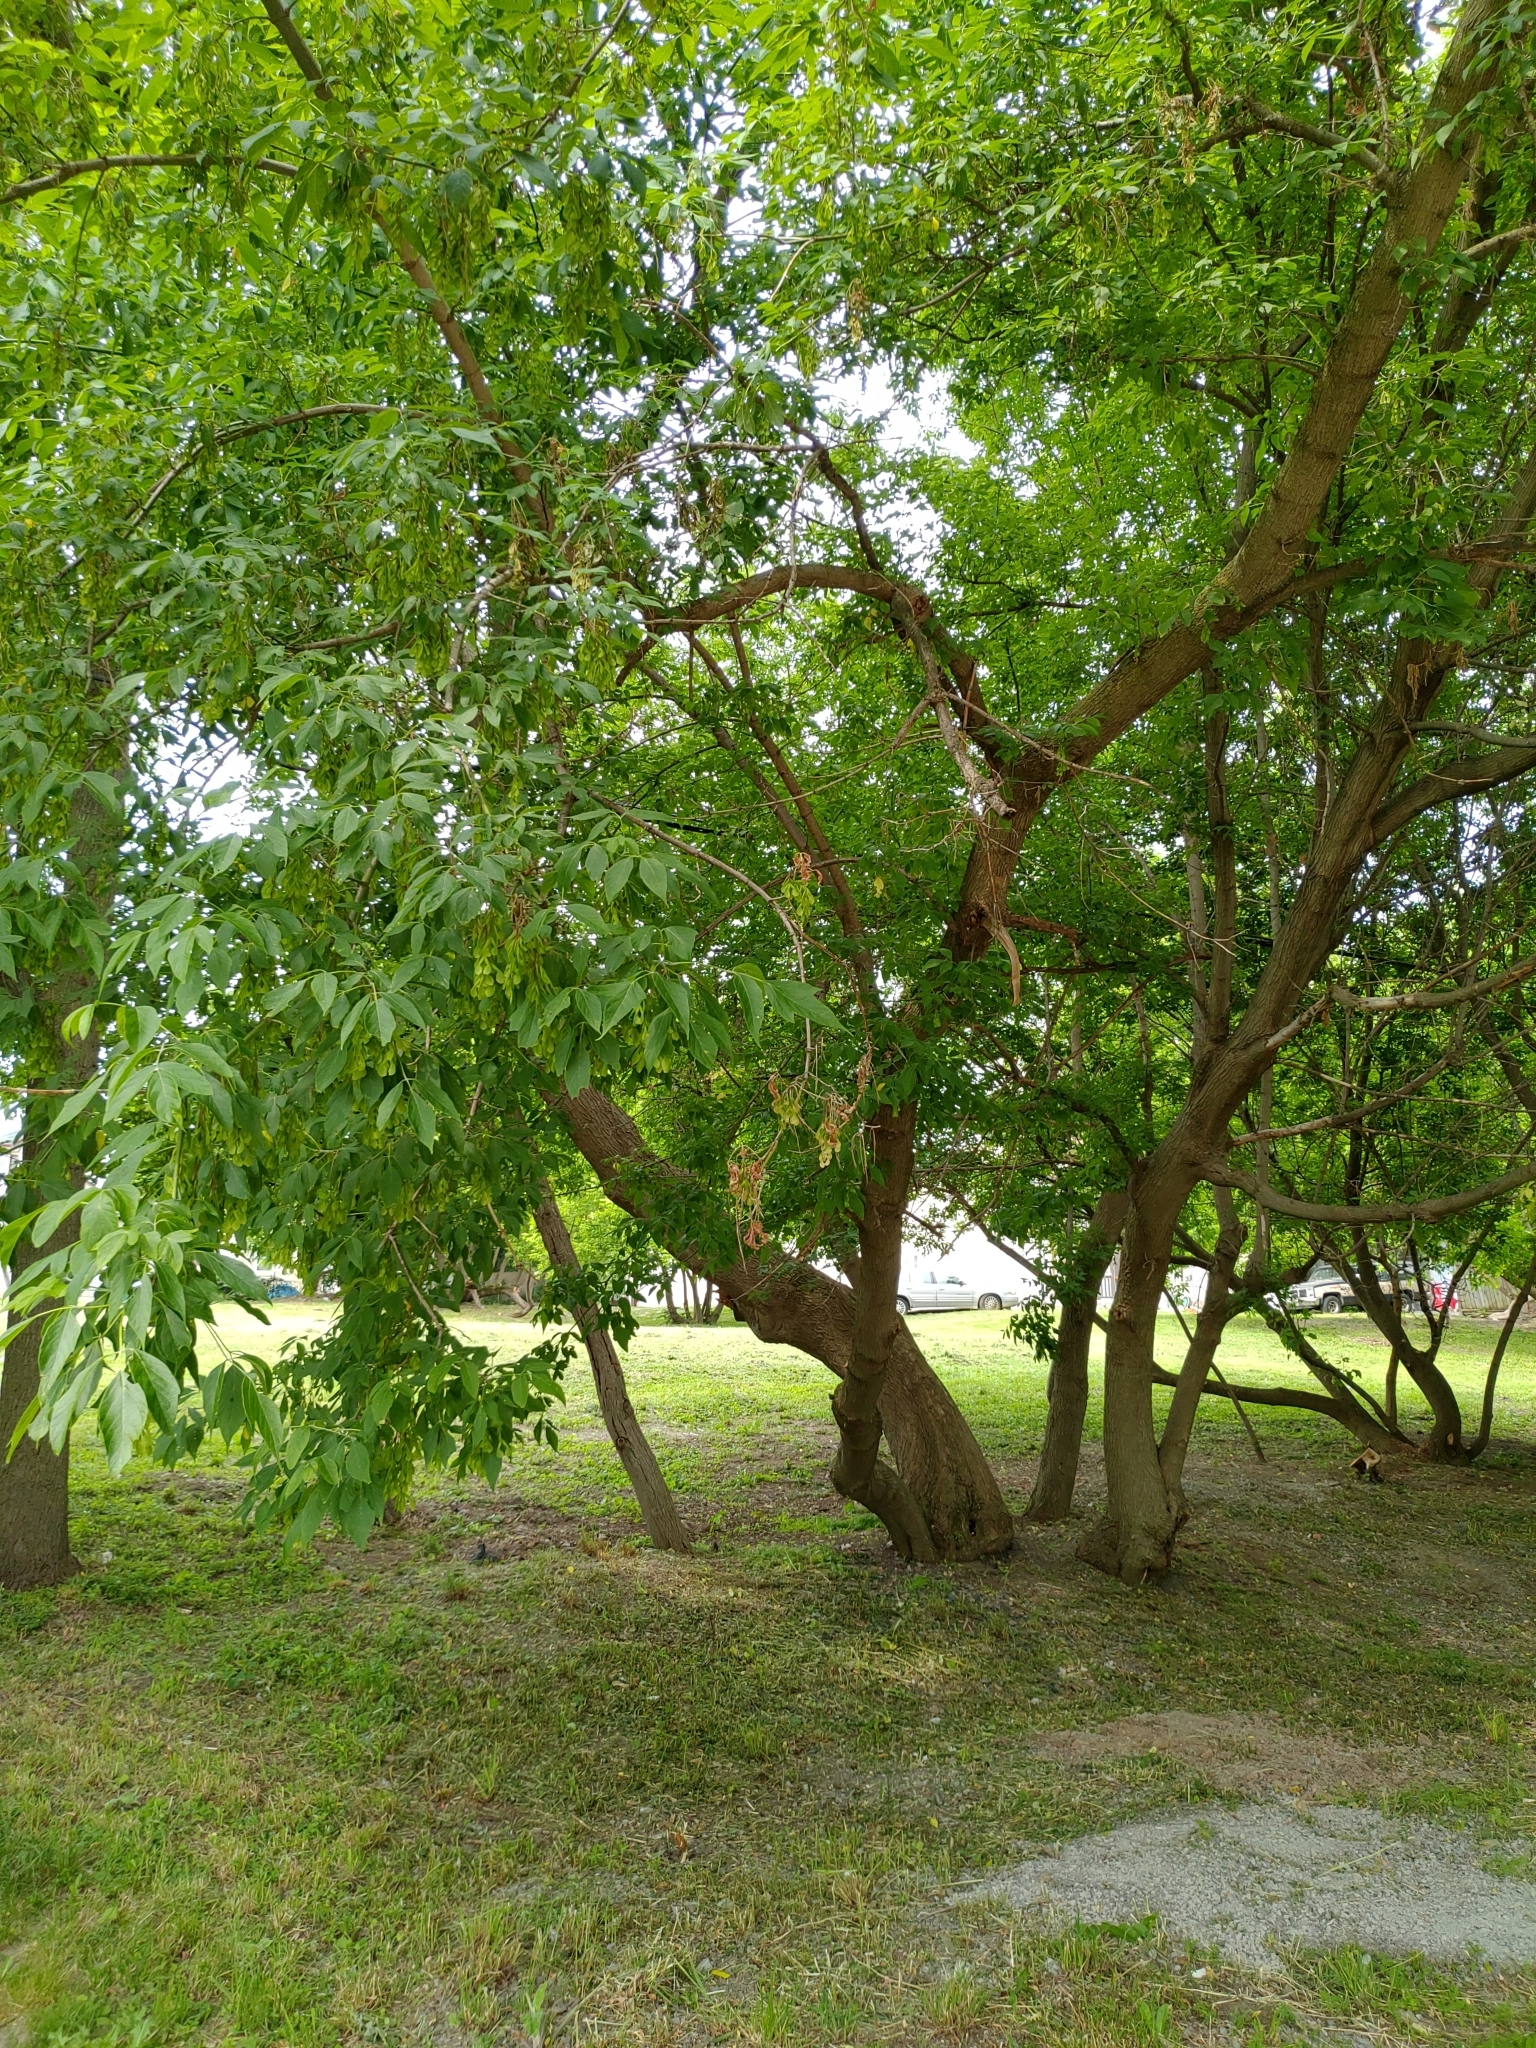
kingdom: Plantae
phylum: Tracheophyta
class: Magnoliopsida
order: Sapindales
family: Sapindaceae
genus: Acer
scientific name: Acer negundo
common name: Ashleaf maple
